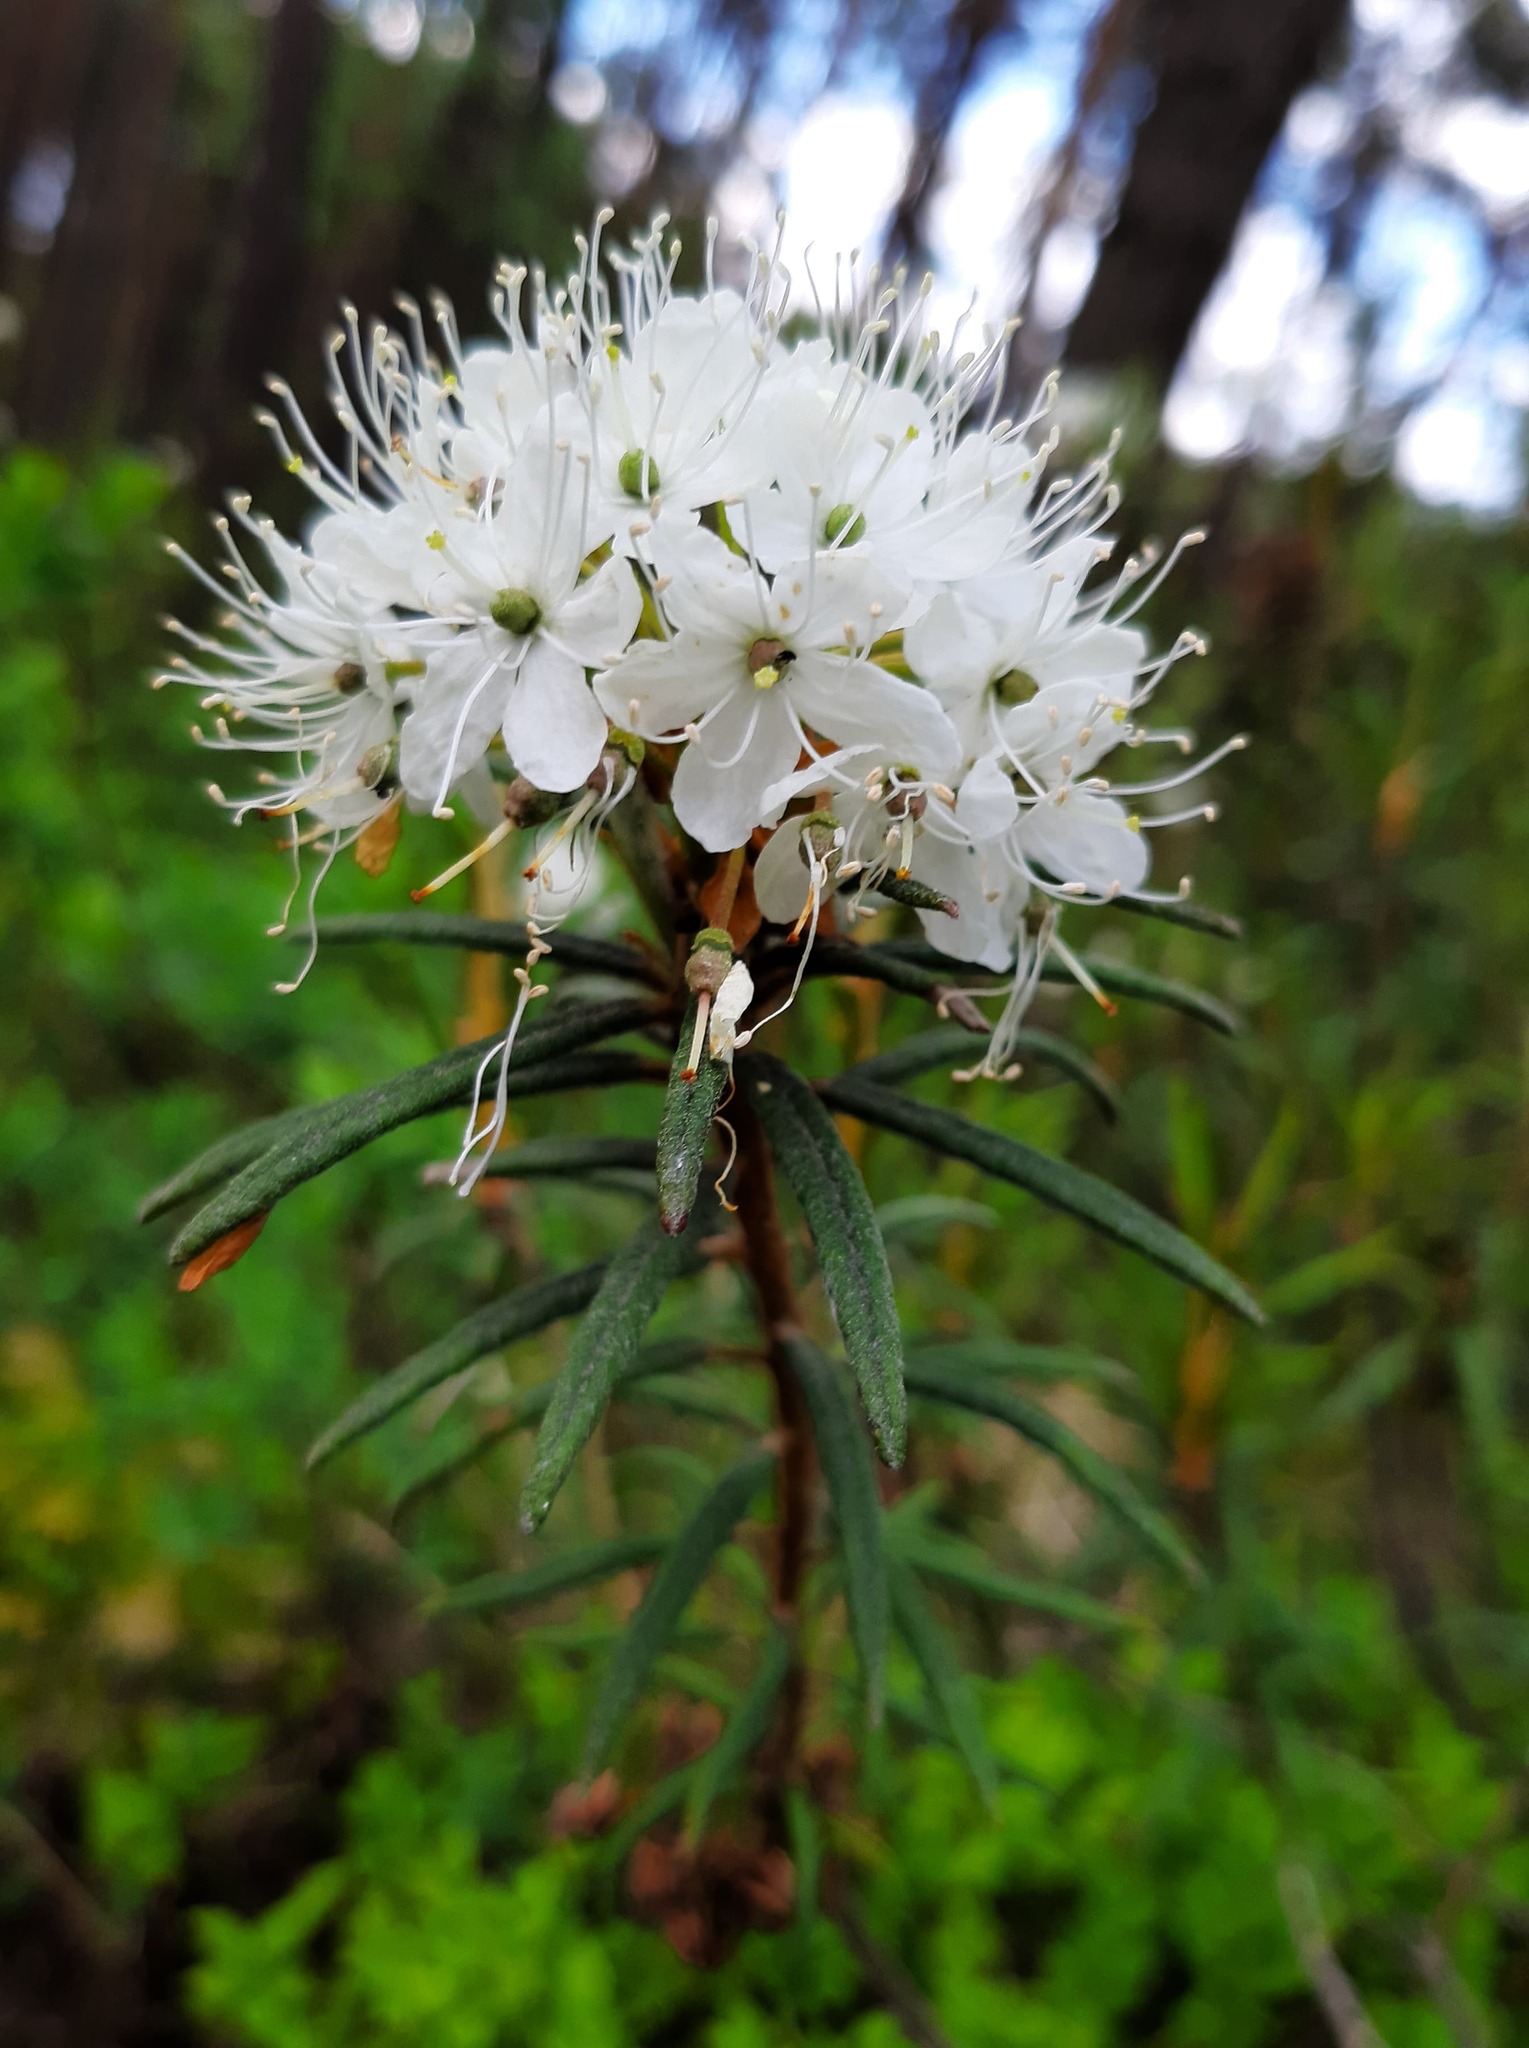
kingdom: Plantae
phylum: Tracheophyta
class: Magnoliopsida
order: Ericales
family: Ericaceae
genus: Rhododendron
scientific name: Rhododendron tomentosum
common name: Marsh labrador tea
